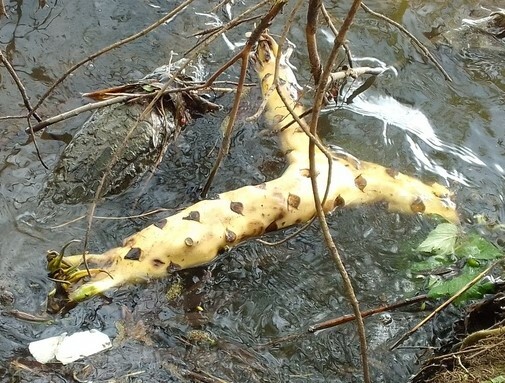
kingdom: Plantae
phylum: Tracheophyta
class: Magnoliopsida
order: Nymphaeales
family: Nymphaeaceae
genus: Nuphar
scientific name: Nuphar lutea
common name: Yellow water-lily
